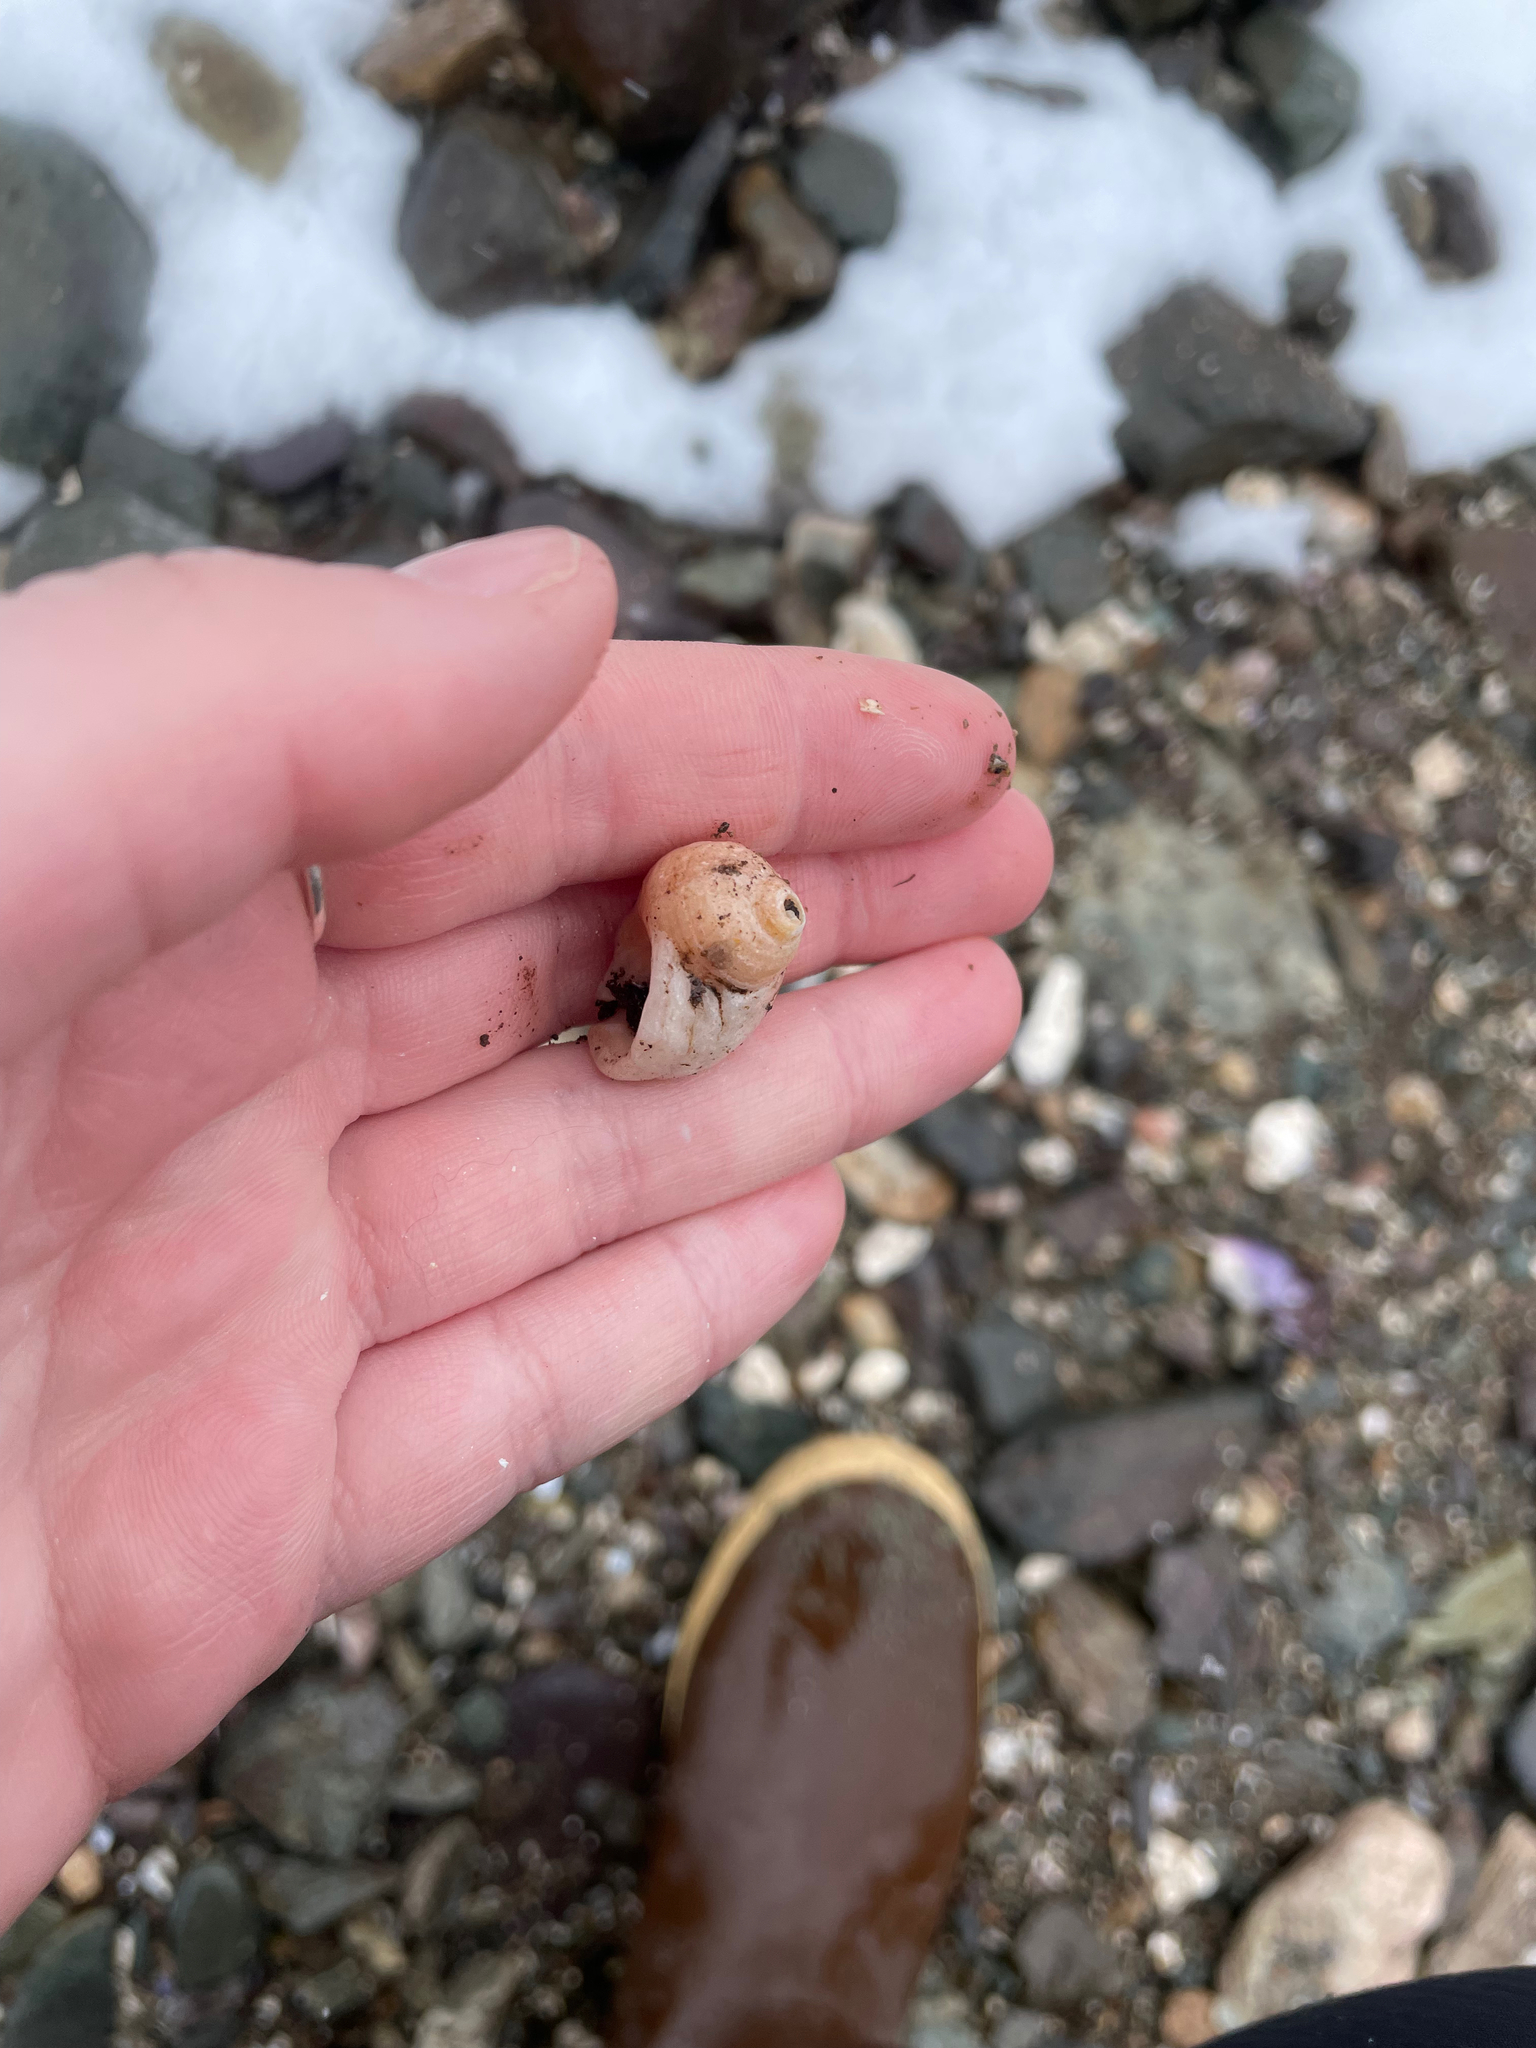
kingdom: Animalia
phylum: Mollusca
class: Gastropoda
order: Neogastropoda
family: Muricidae
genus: Nucella
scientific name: Nucella lapillus
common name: Dog whelk
